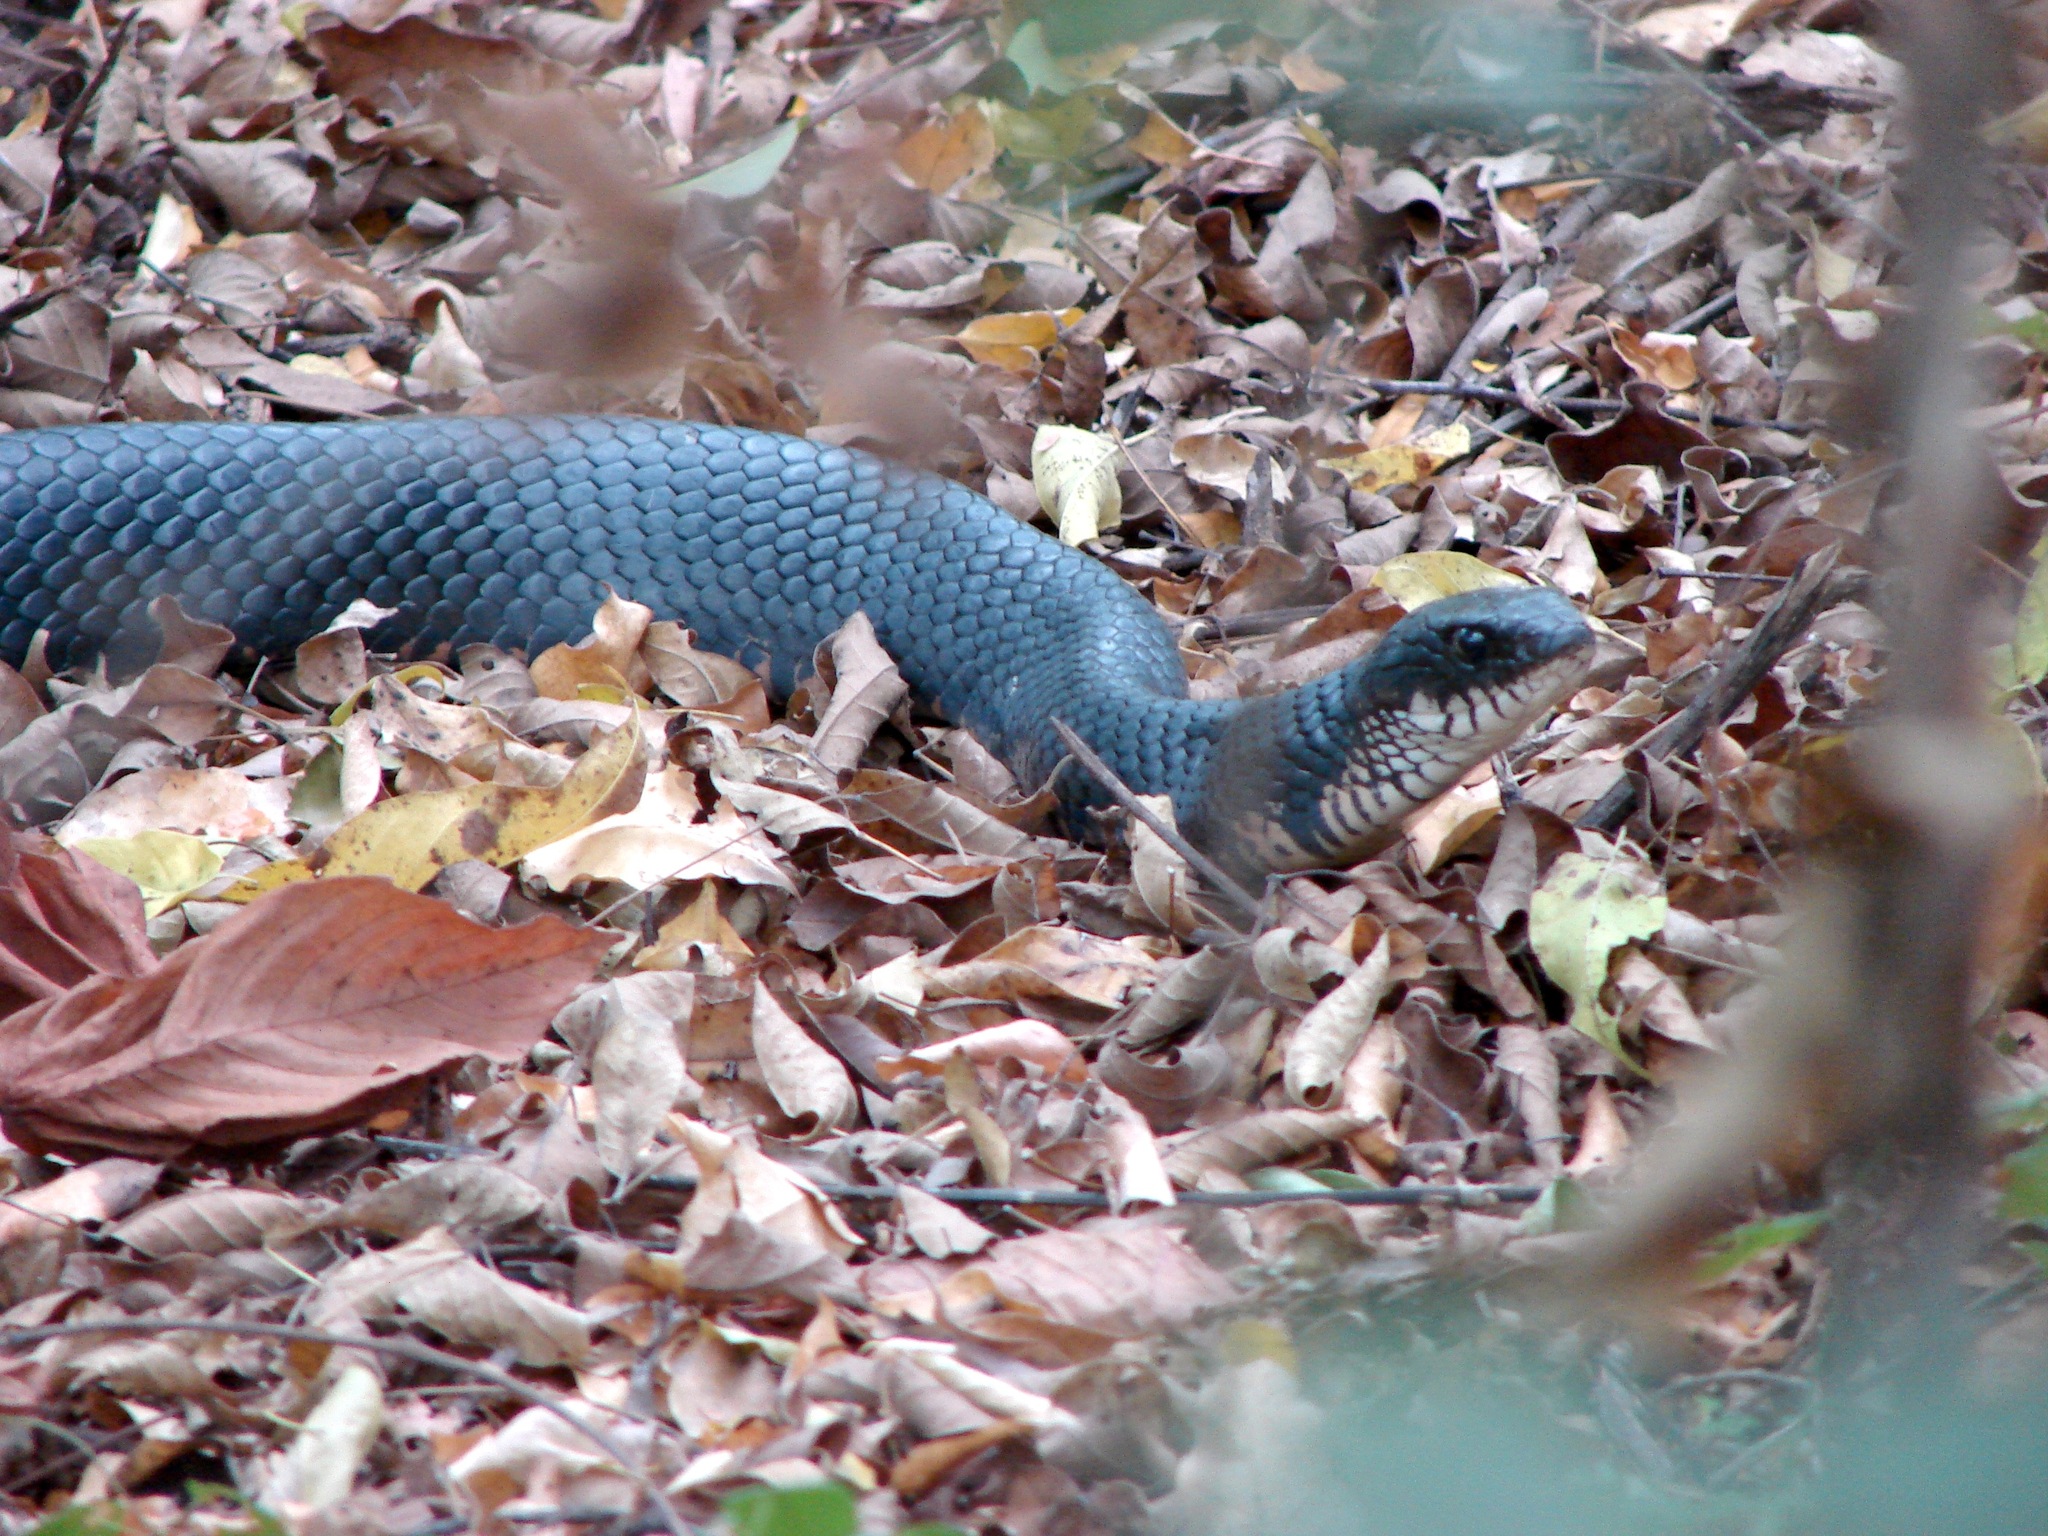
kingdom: Animalia
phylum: Chordata
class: Squamata
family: Colubridae
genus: Drymarchon
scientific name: Drymarchon melanurus
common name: Central american indigo snake
